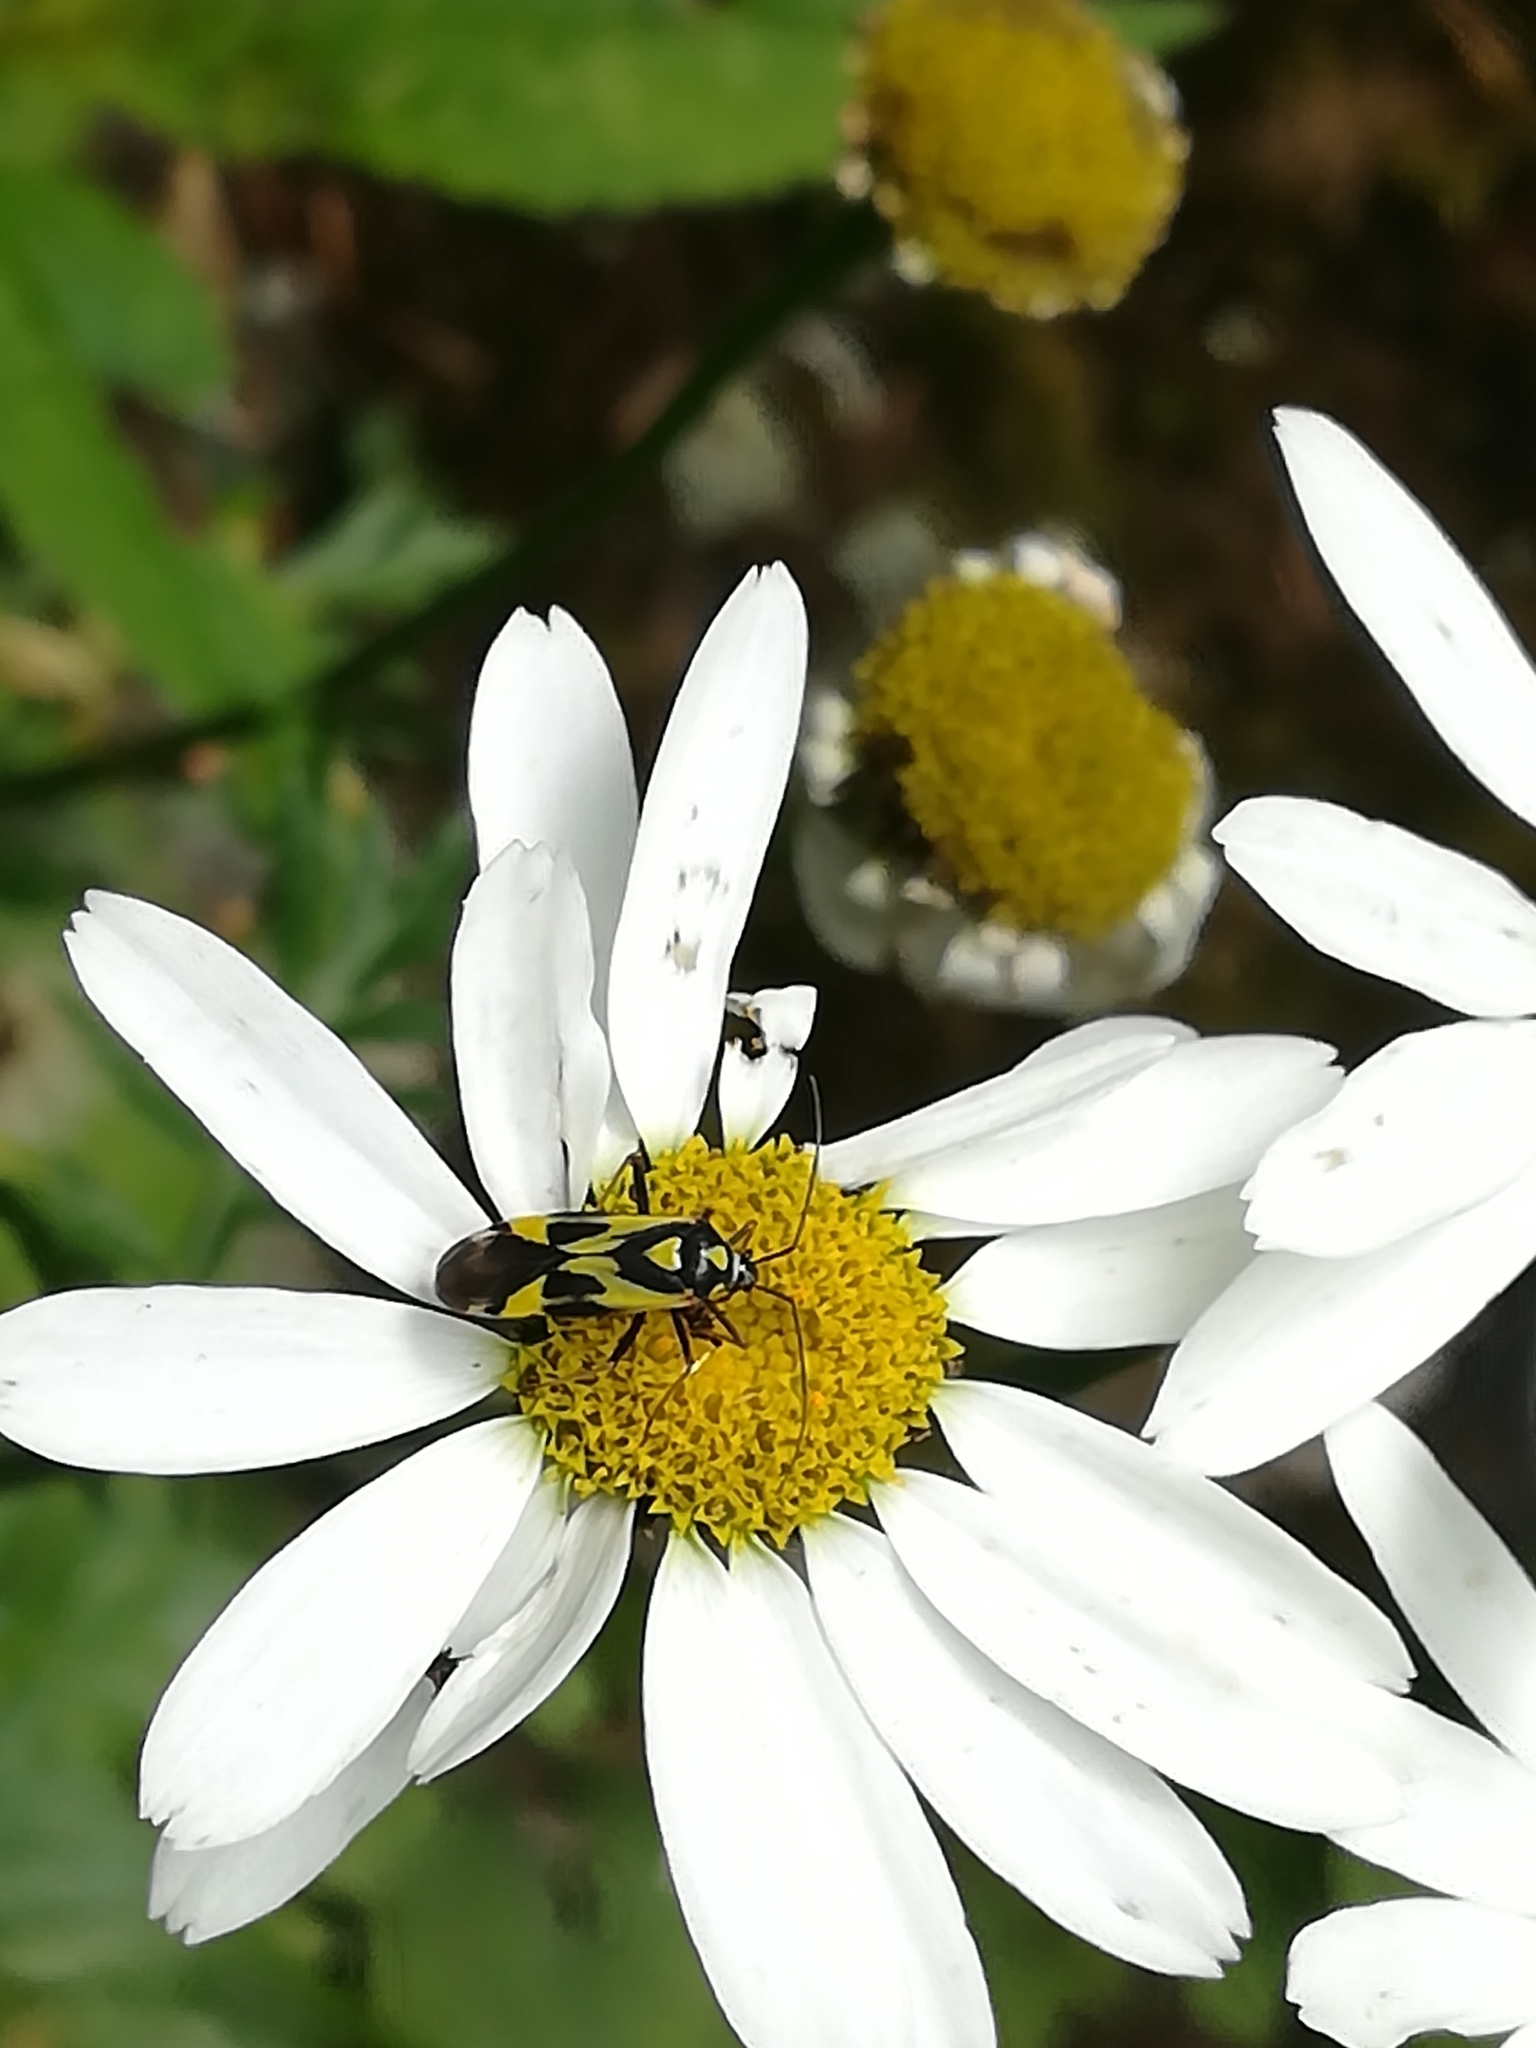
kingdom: Animalia
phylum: Arthropoda
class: Insecta
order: Hemiptera
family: Miridae
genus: Grypocoris
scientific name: Grypocoris sexguttatus
